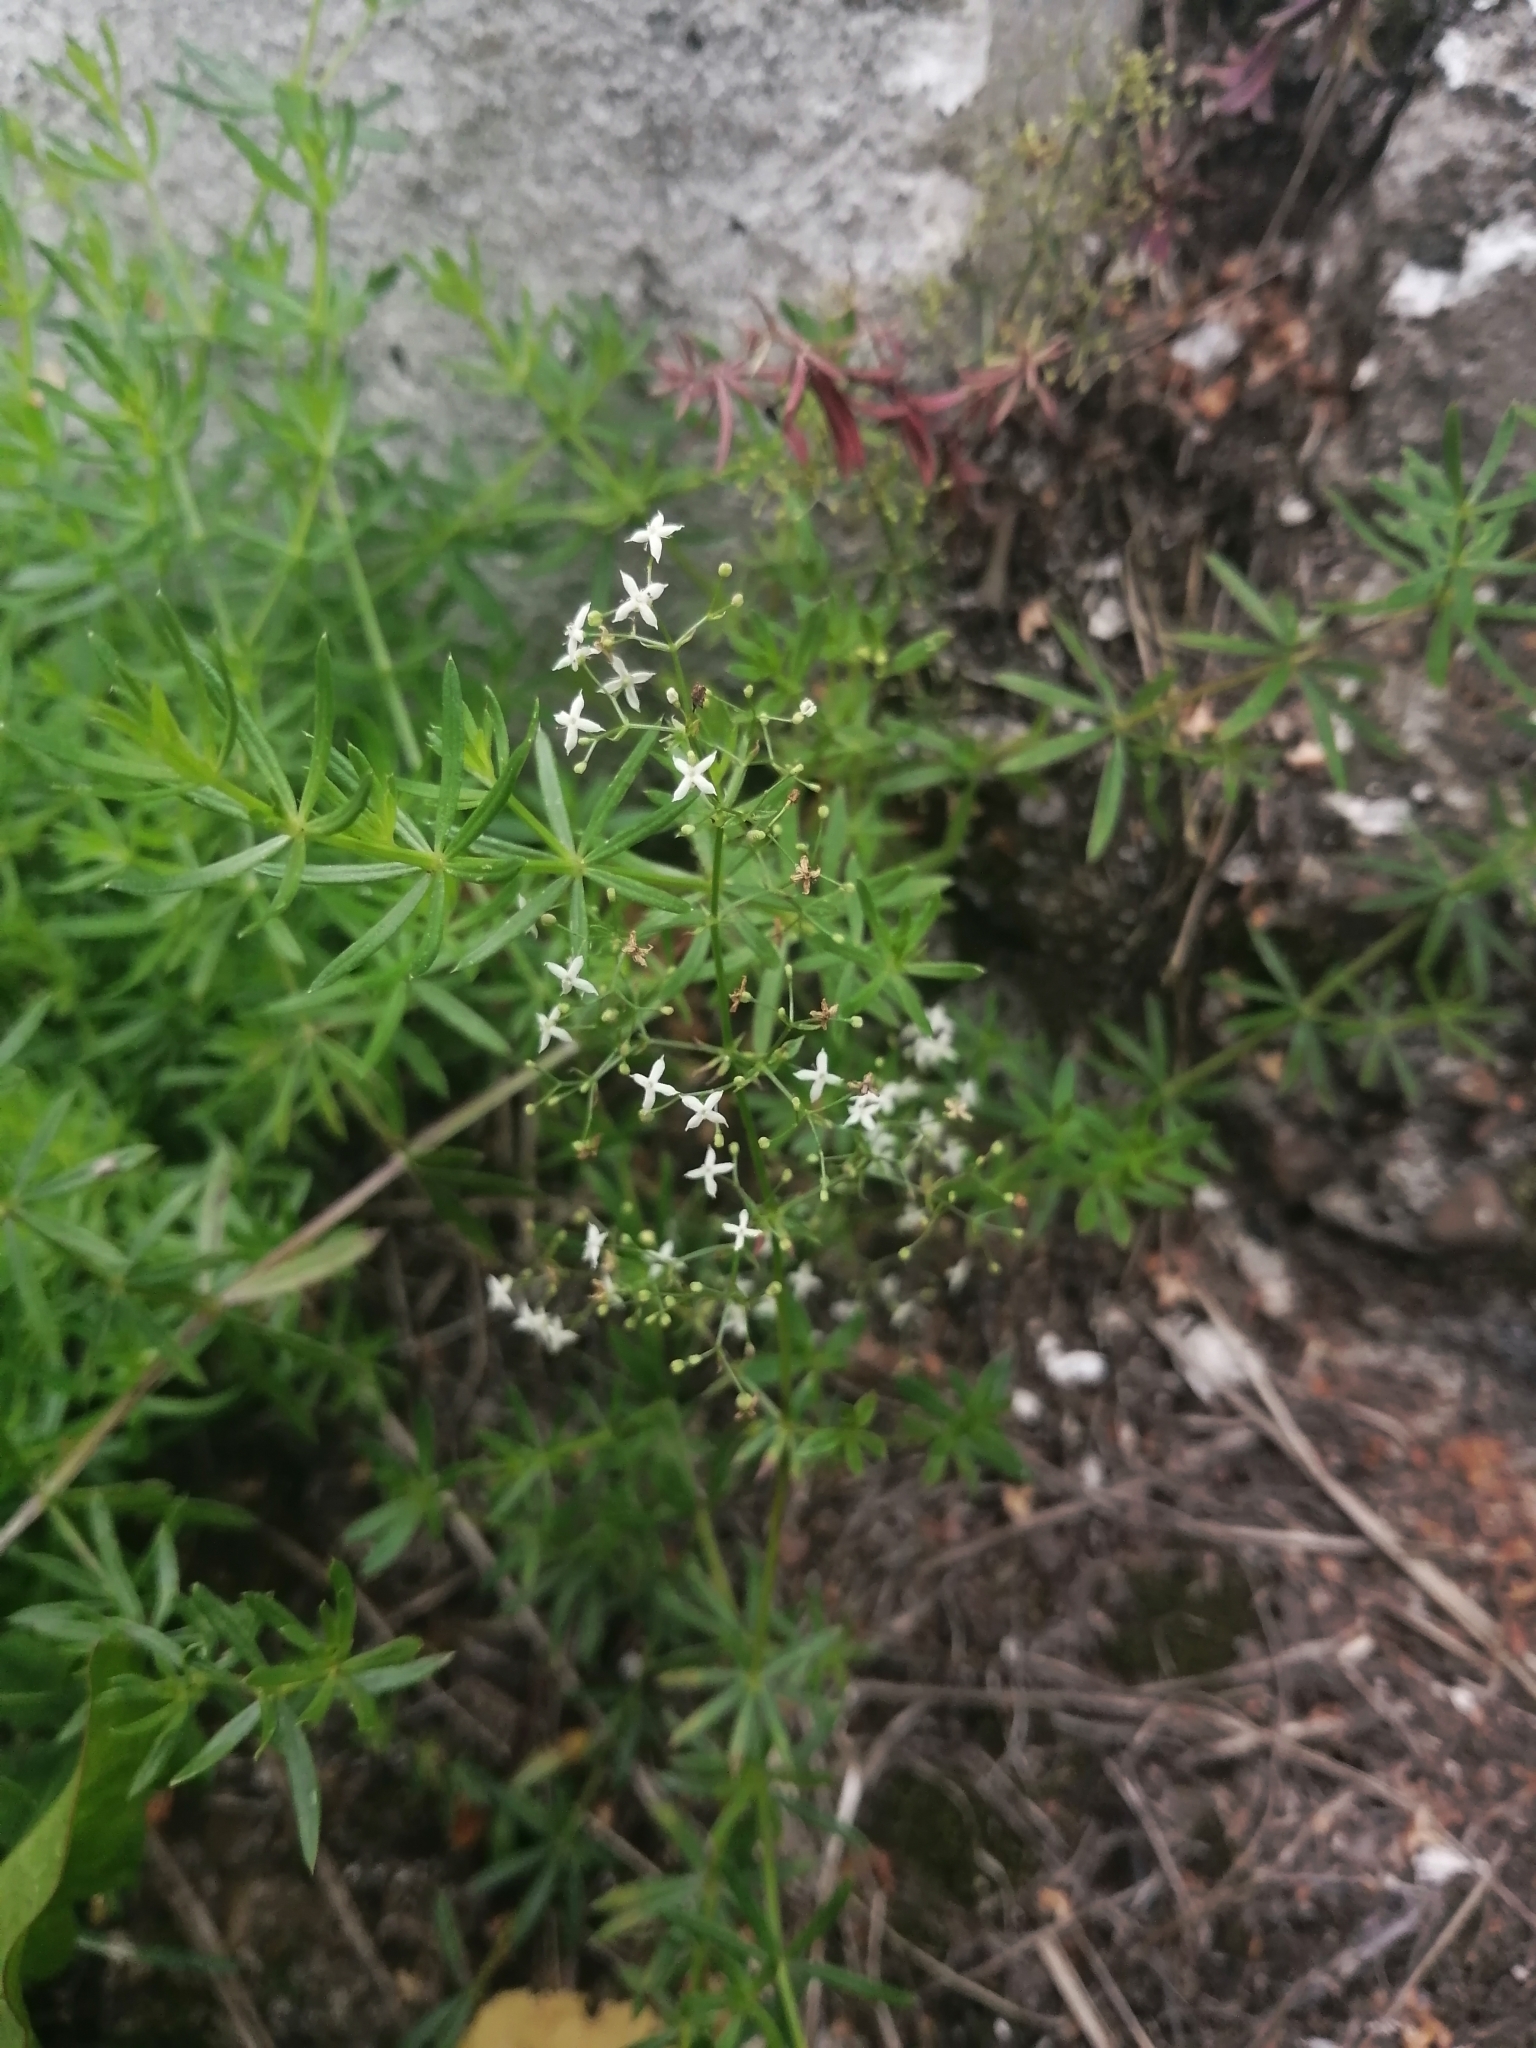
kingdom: Plantae
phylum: Tracheophyta
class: Magnoliopsida
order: Gentianales
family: Rubiaceae
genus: Galium
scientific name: Galium mollugo
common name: Hedge bedstraw
